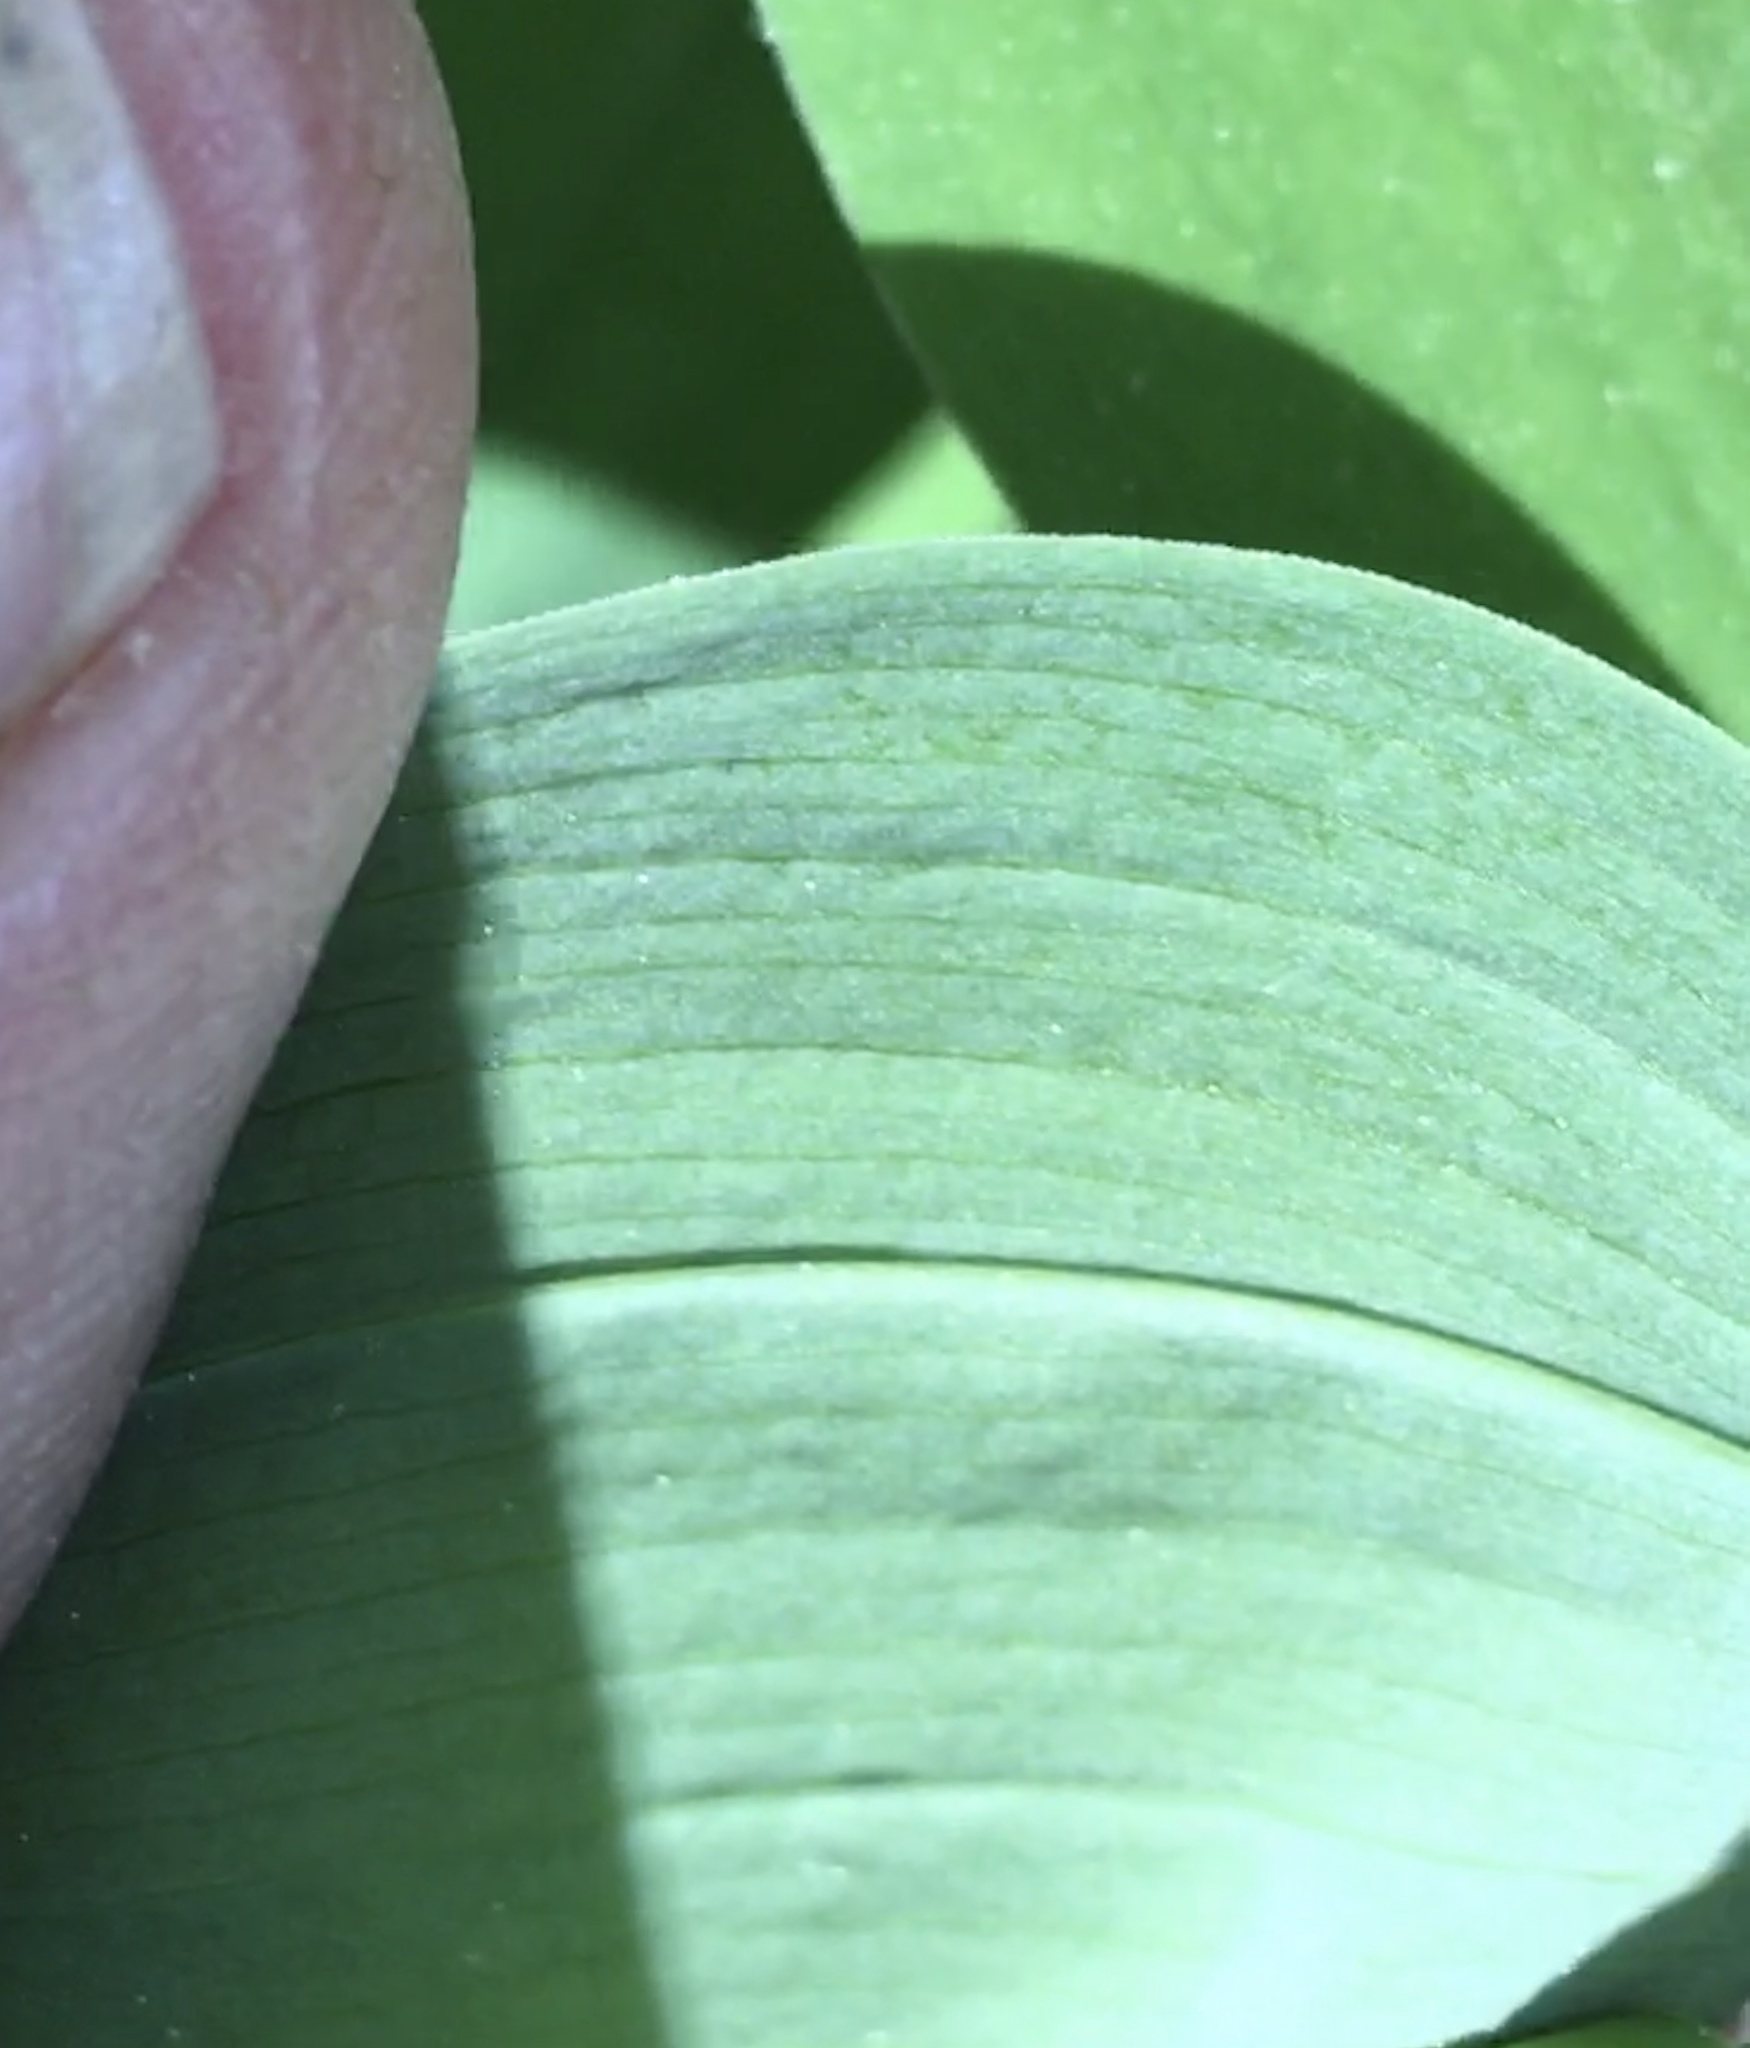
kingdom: Plantae
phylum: Tracheophyta
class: Liliopsida
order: Liliales
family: Colchicaceae
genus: Uvularia
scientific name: Uvularia sessilifolia
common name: Straw-lily
